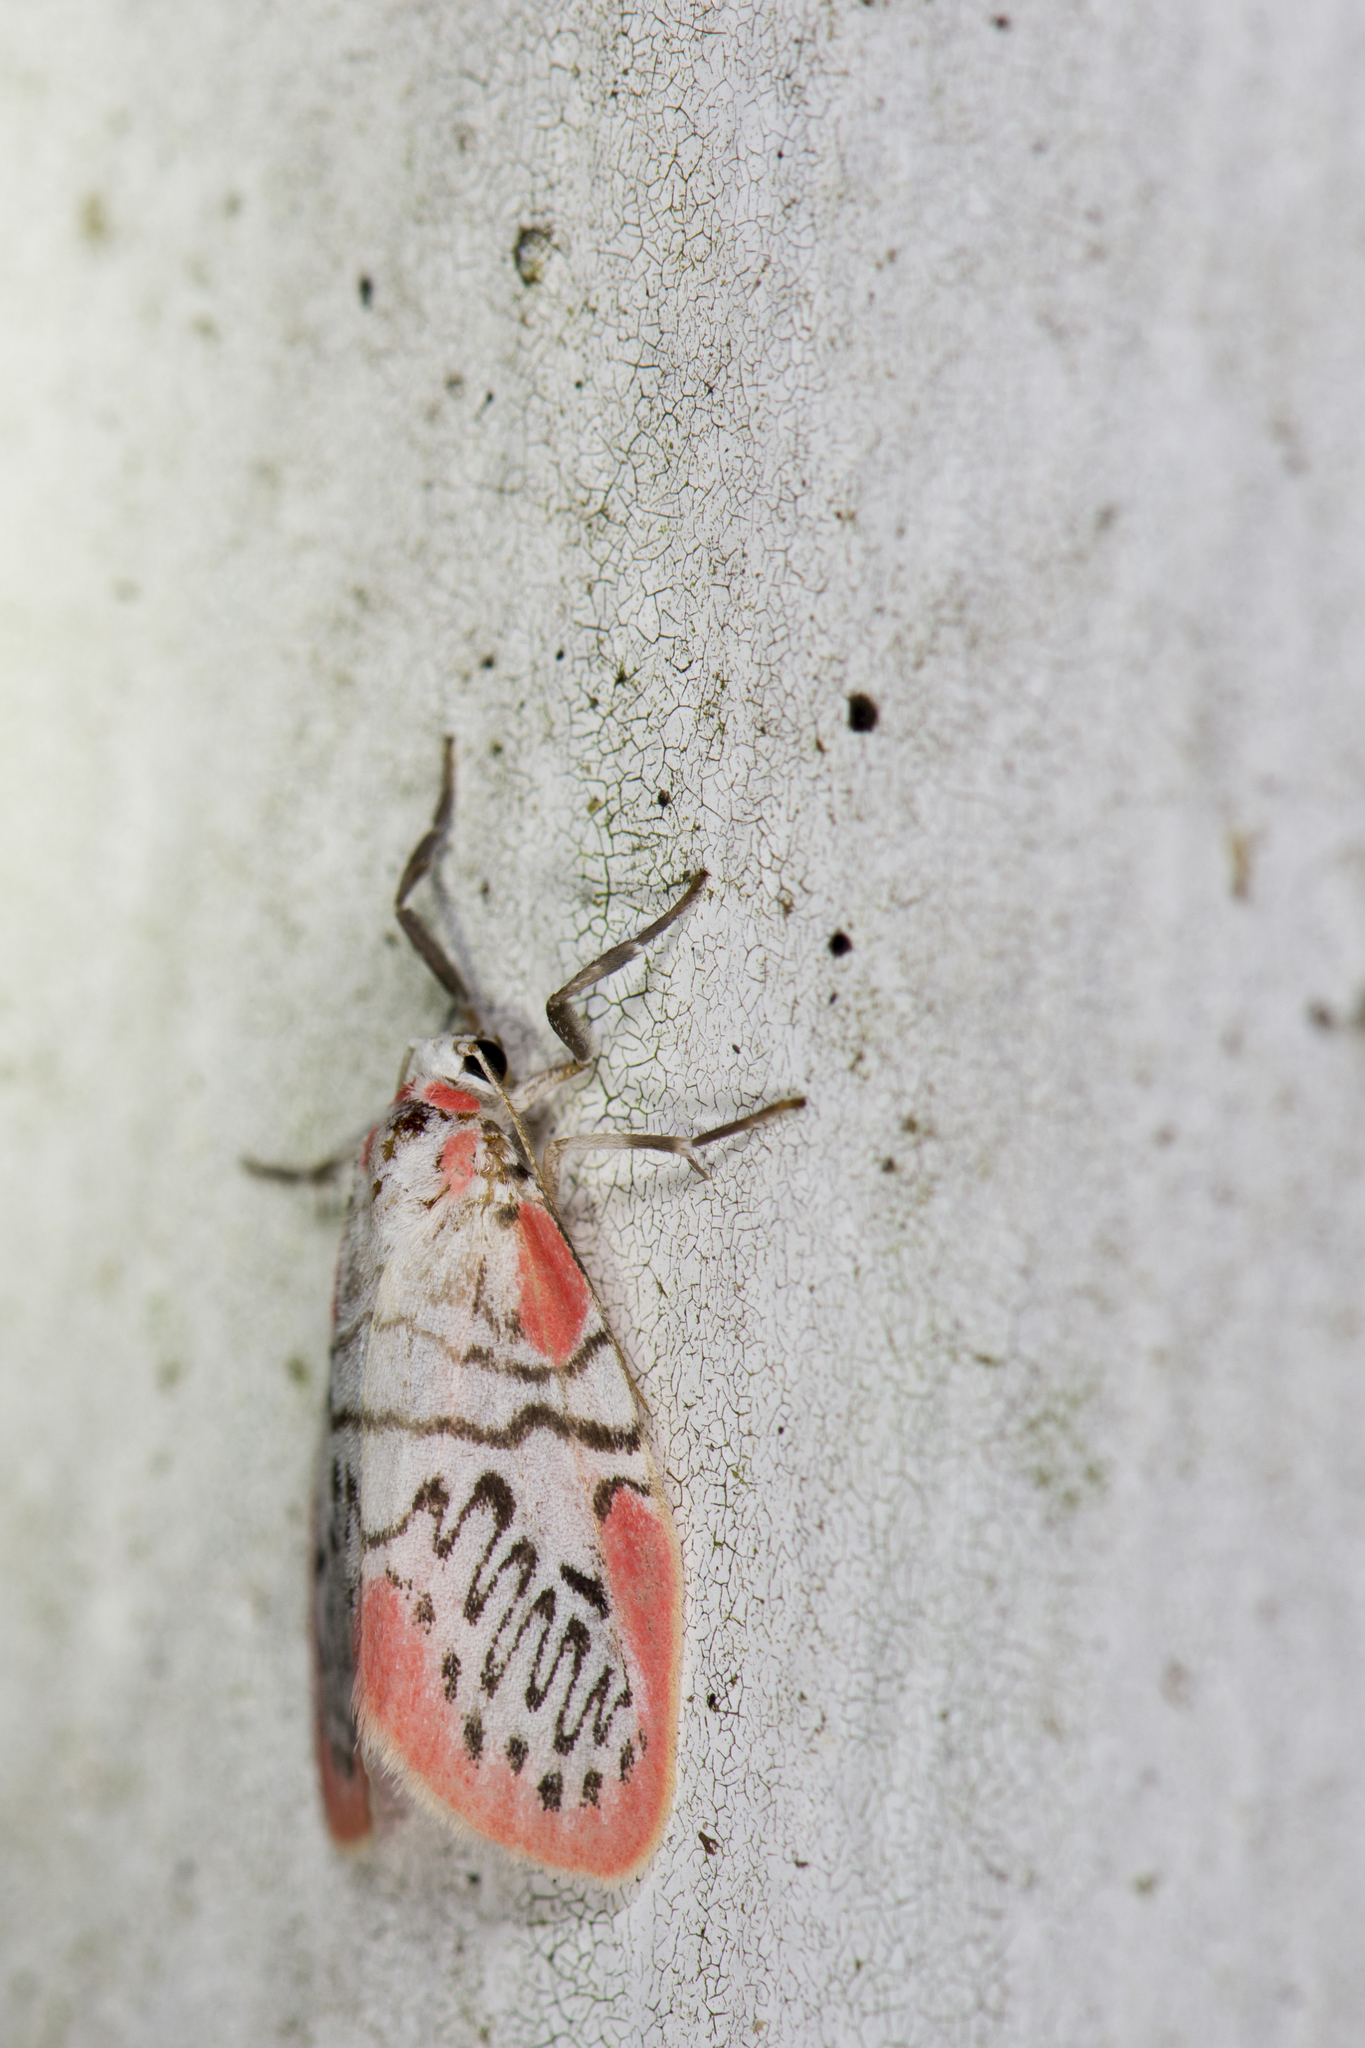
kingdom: Animalia
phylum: Arthropoda
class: Insecta
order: Lepidoptera
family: Erebidae
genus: Miltochrista
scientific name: Miltochrista ziczac
